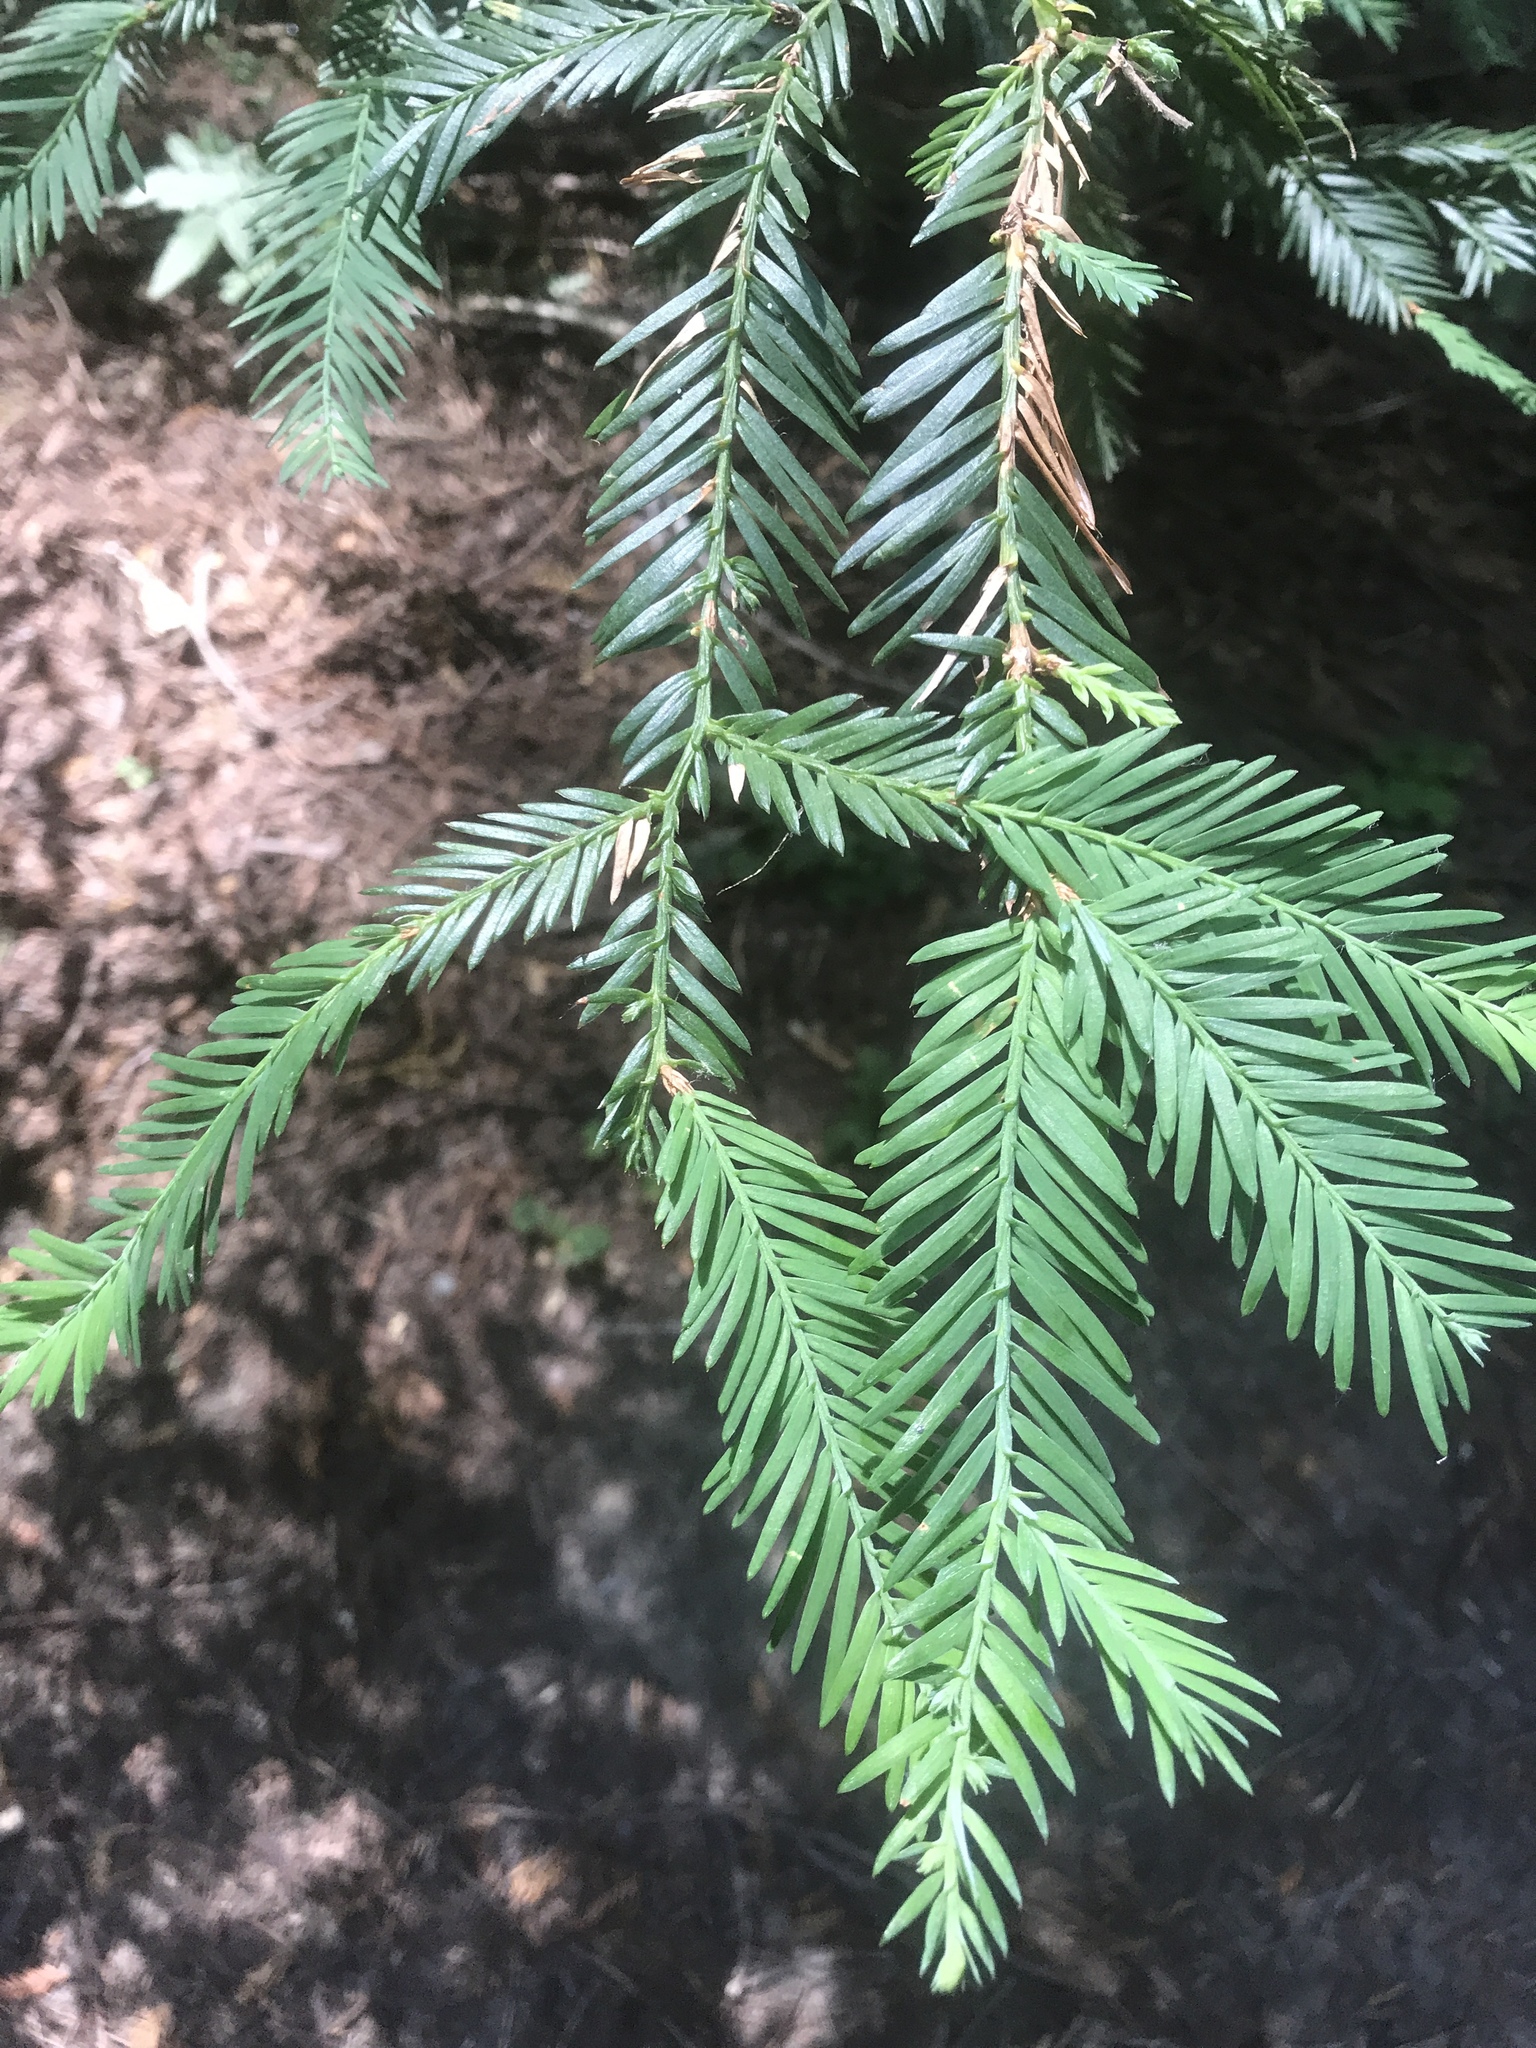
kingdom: Plantae
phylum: Tracheophyta
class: Pinopsida
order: Pinales
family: Cupressaceae
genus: Sequoia
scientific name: Sequoia sempervirens
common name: Coast redwood
